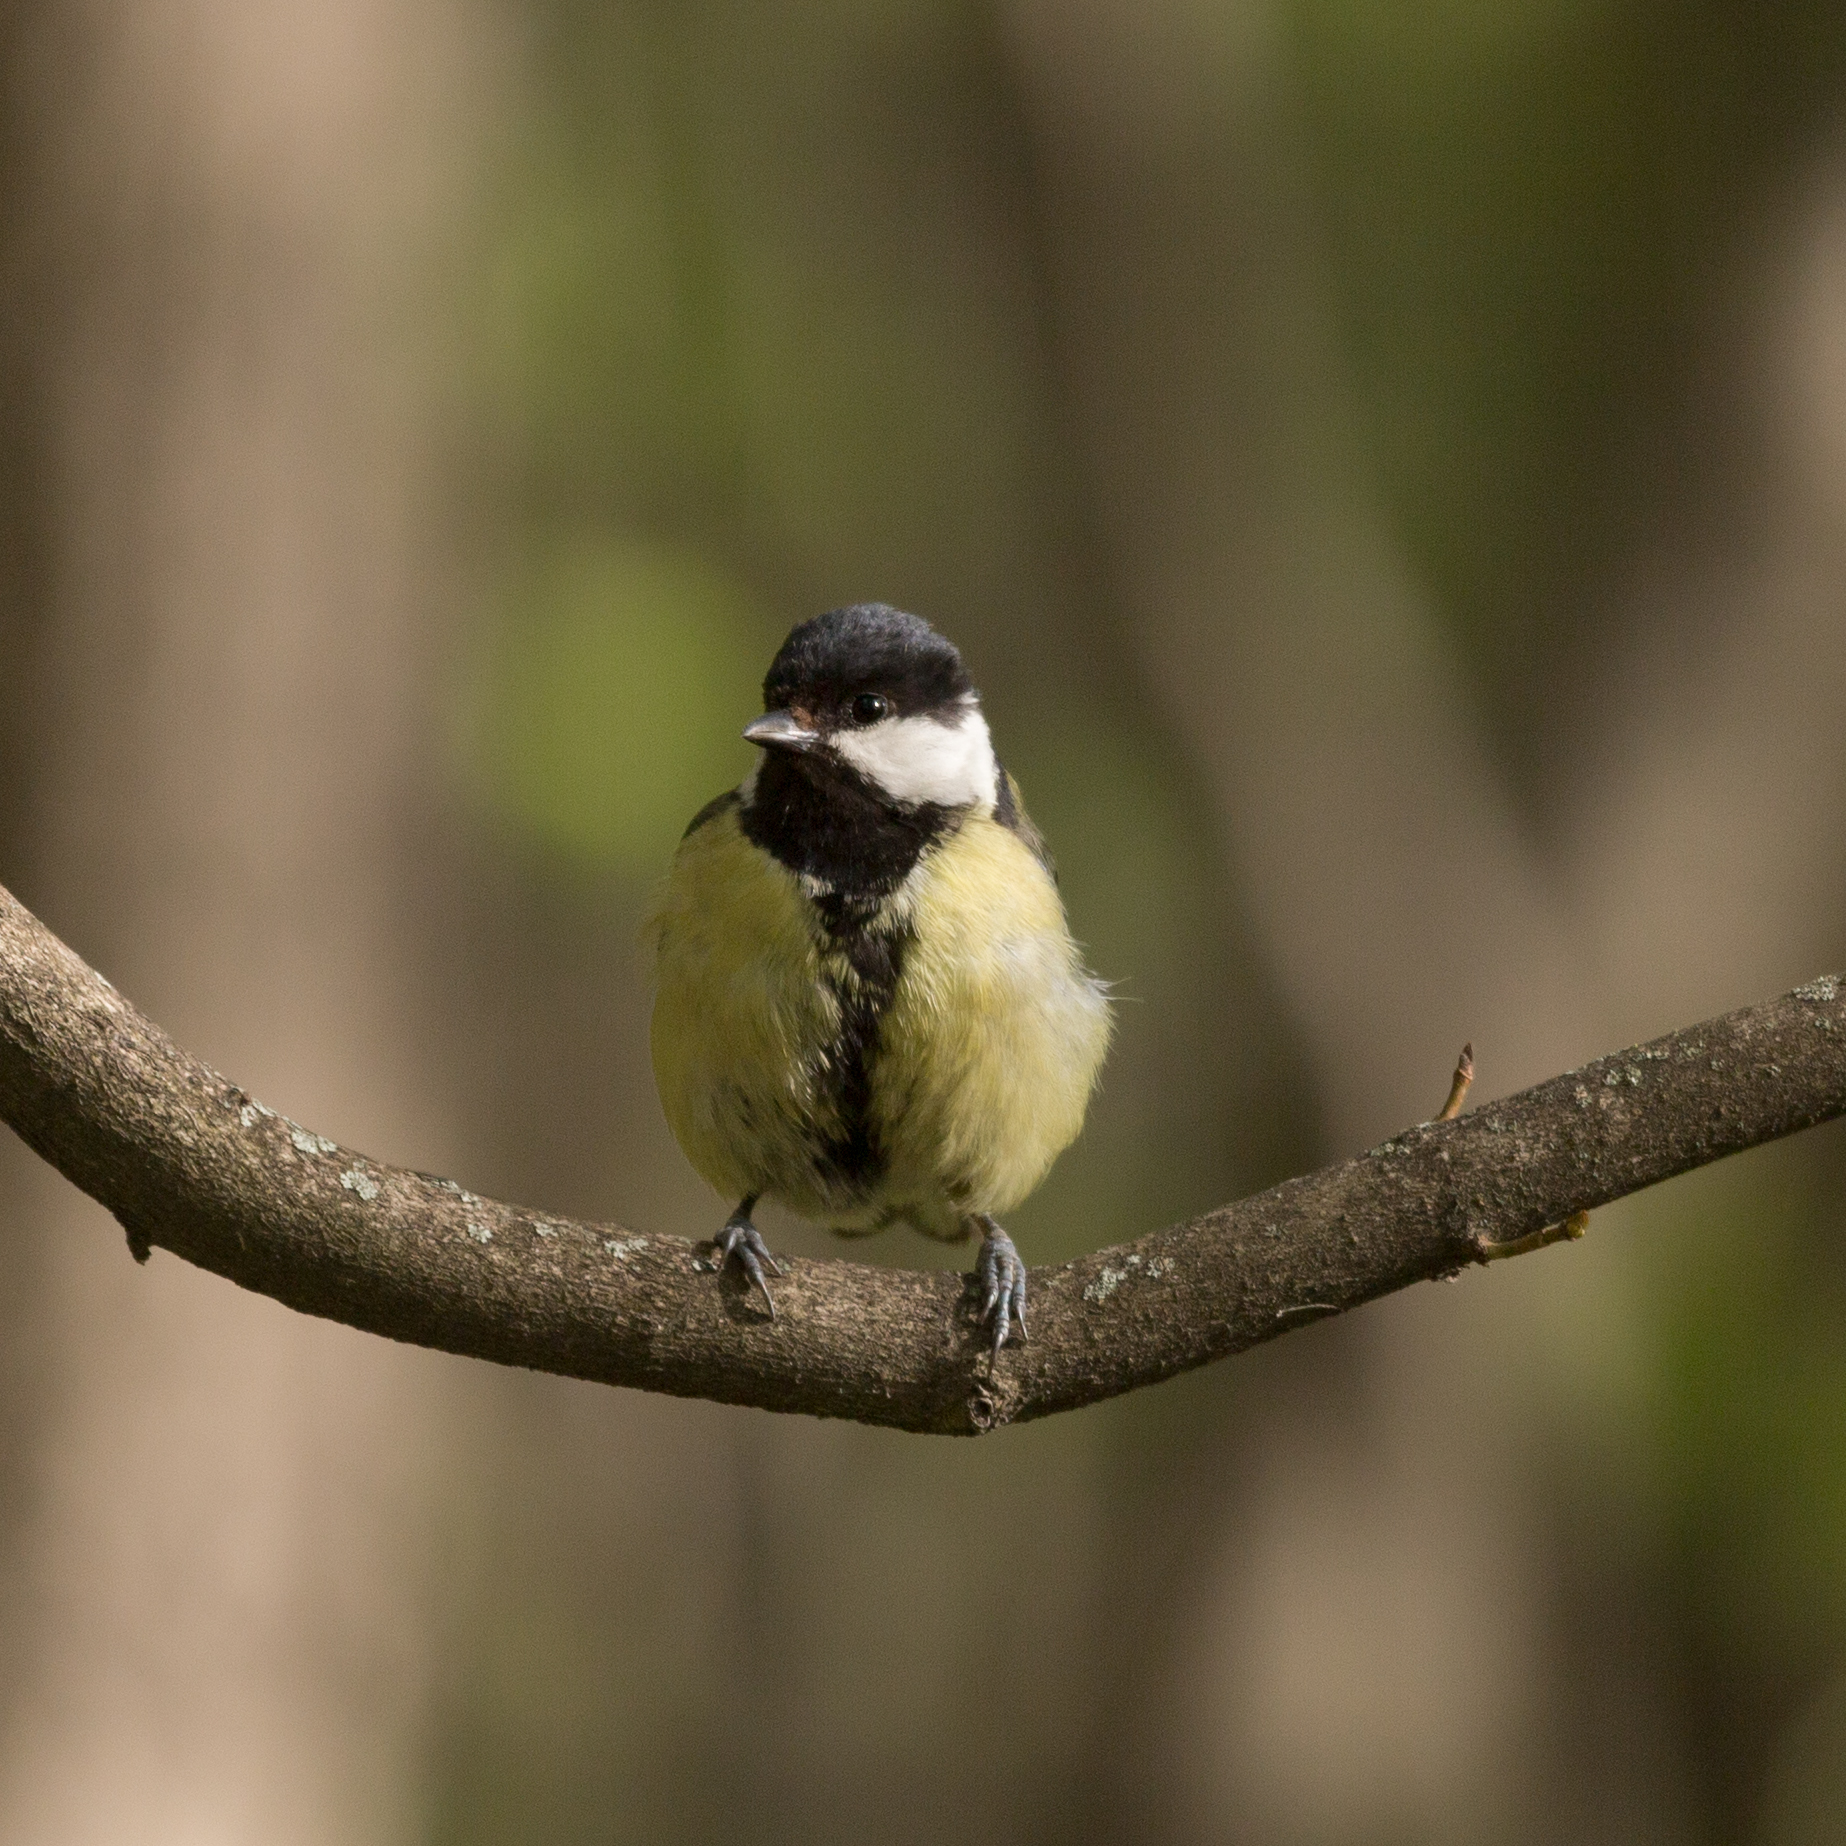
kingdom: Animalia
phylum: Chordata
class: Aves
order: Passeriformes
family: Paridae
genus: Parus
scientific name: Parus major
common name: Great tit
